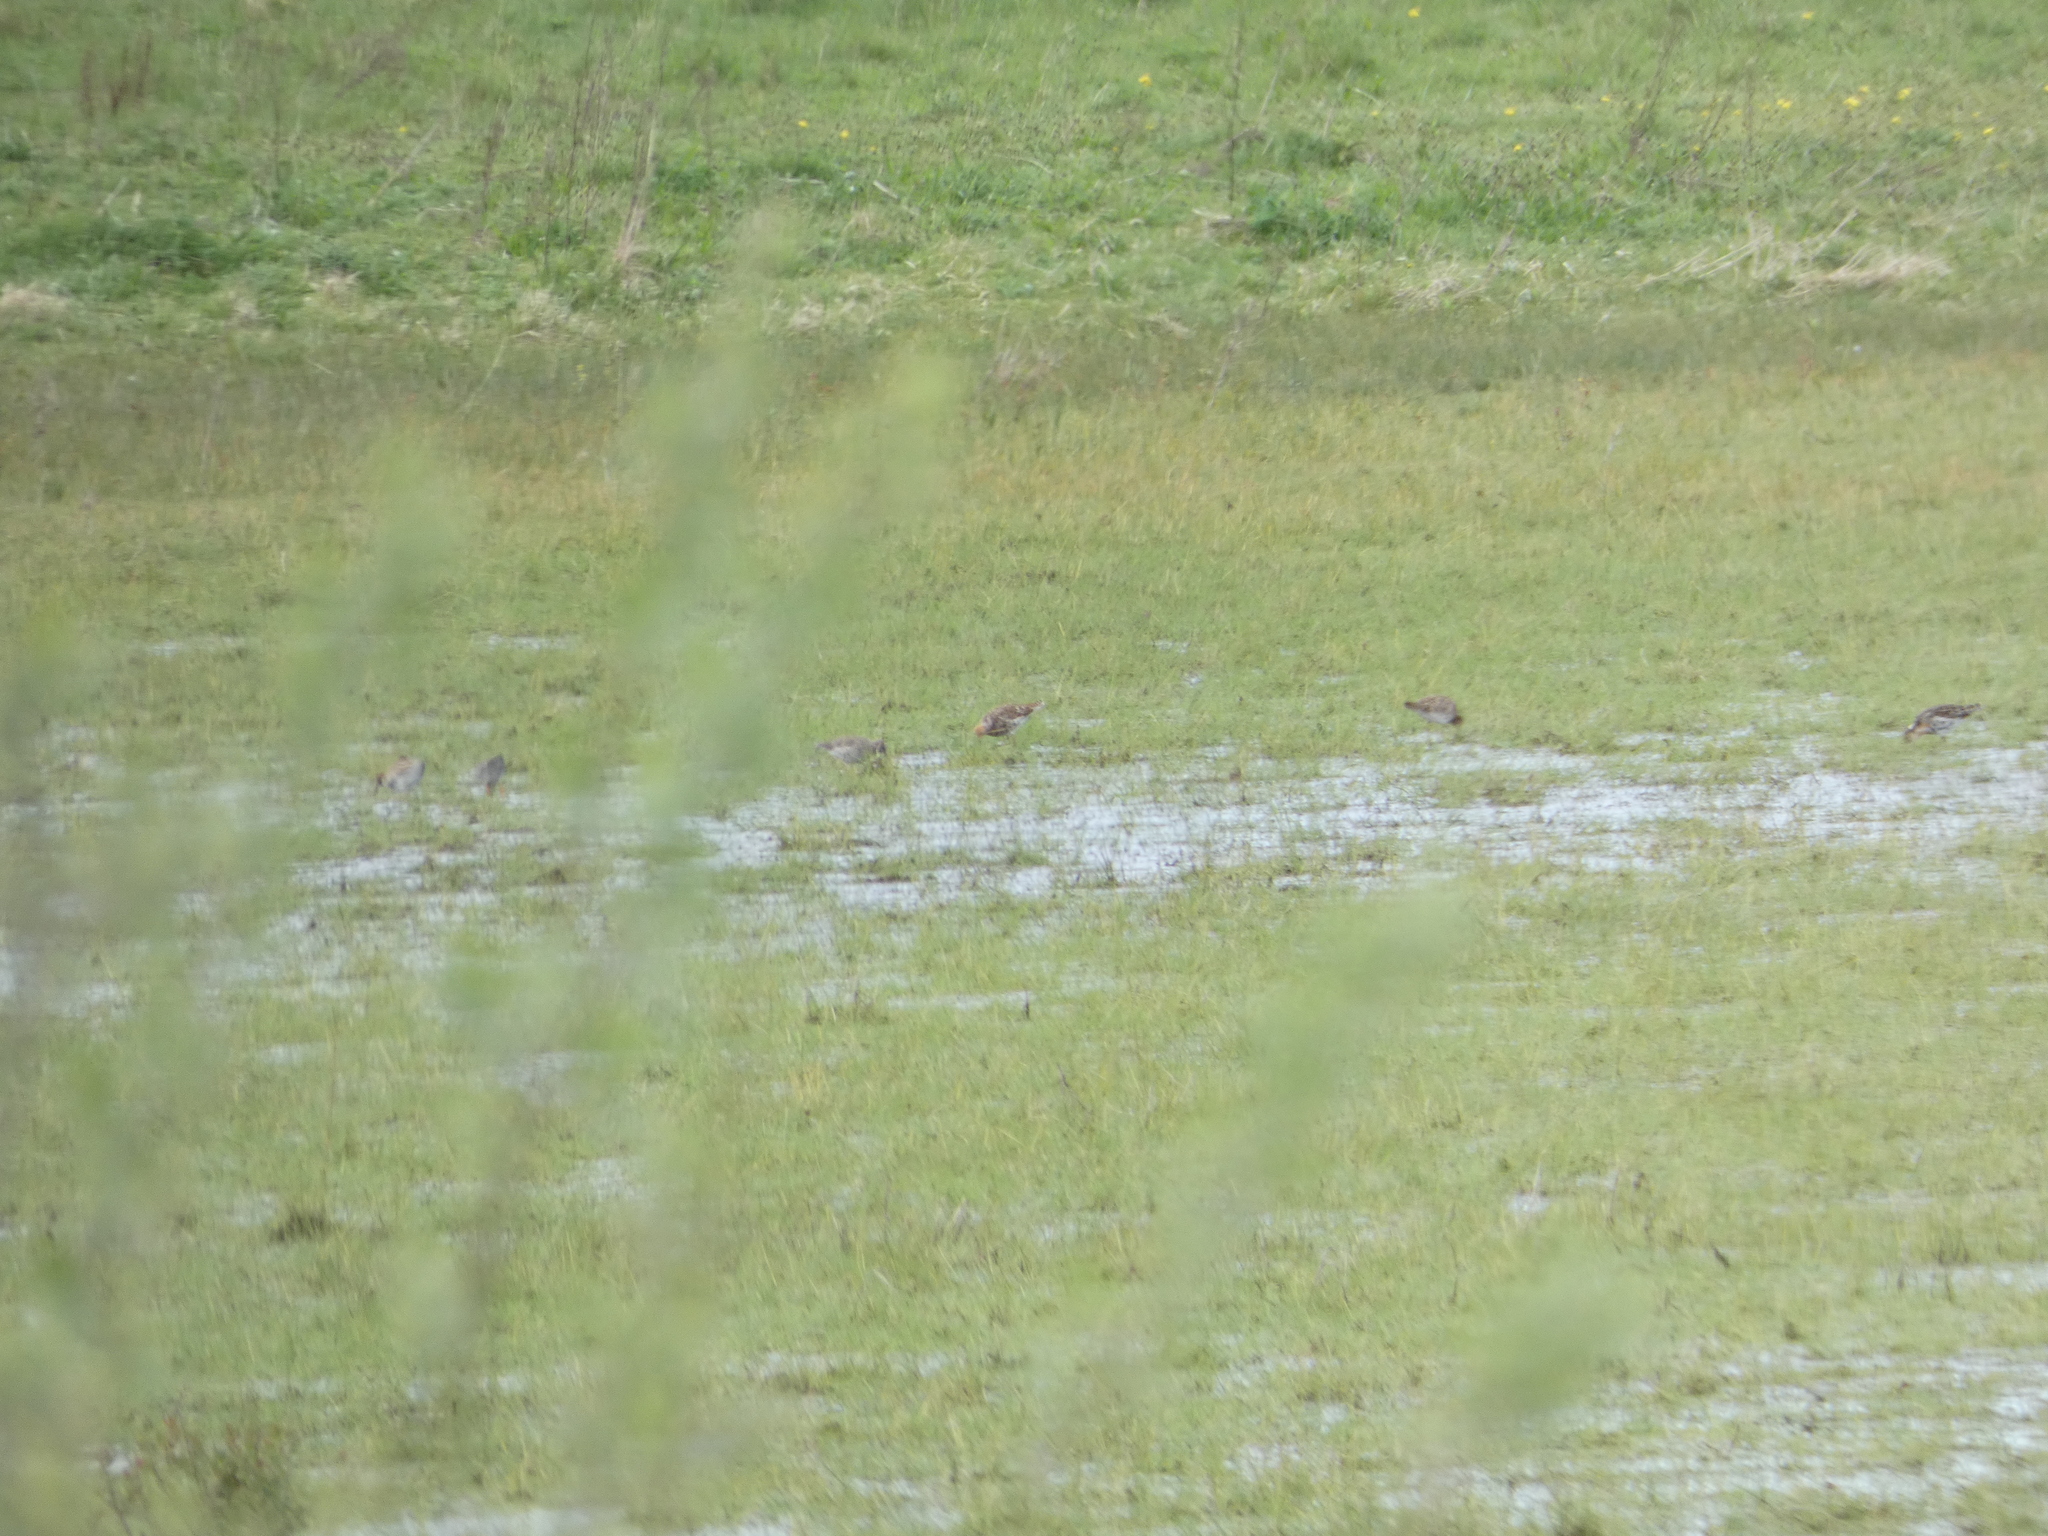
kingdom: Animalia
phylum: Chordata
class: Aves
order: Charadriiformes
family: Scolopacidae
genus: Calidris
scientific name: Calidris pugnax
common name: Ruff
